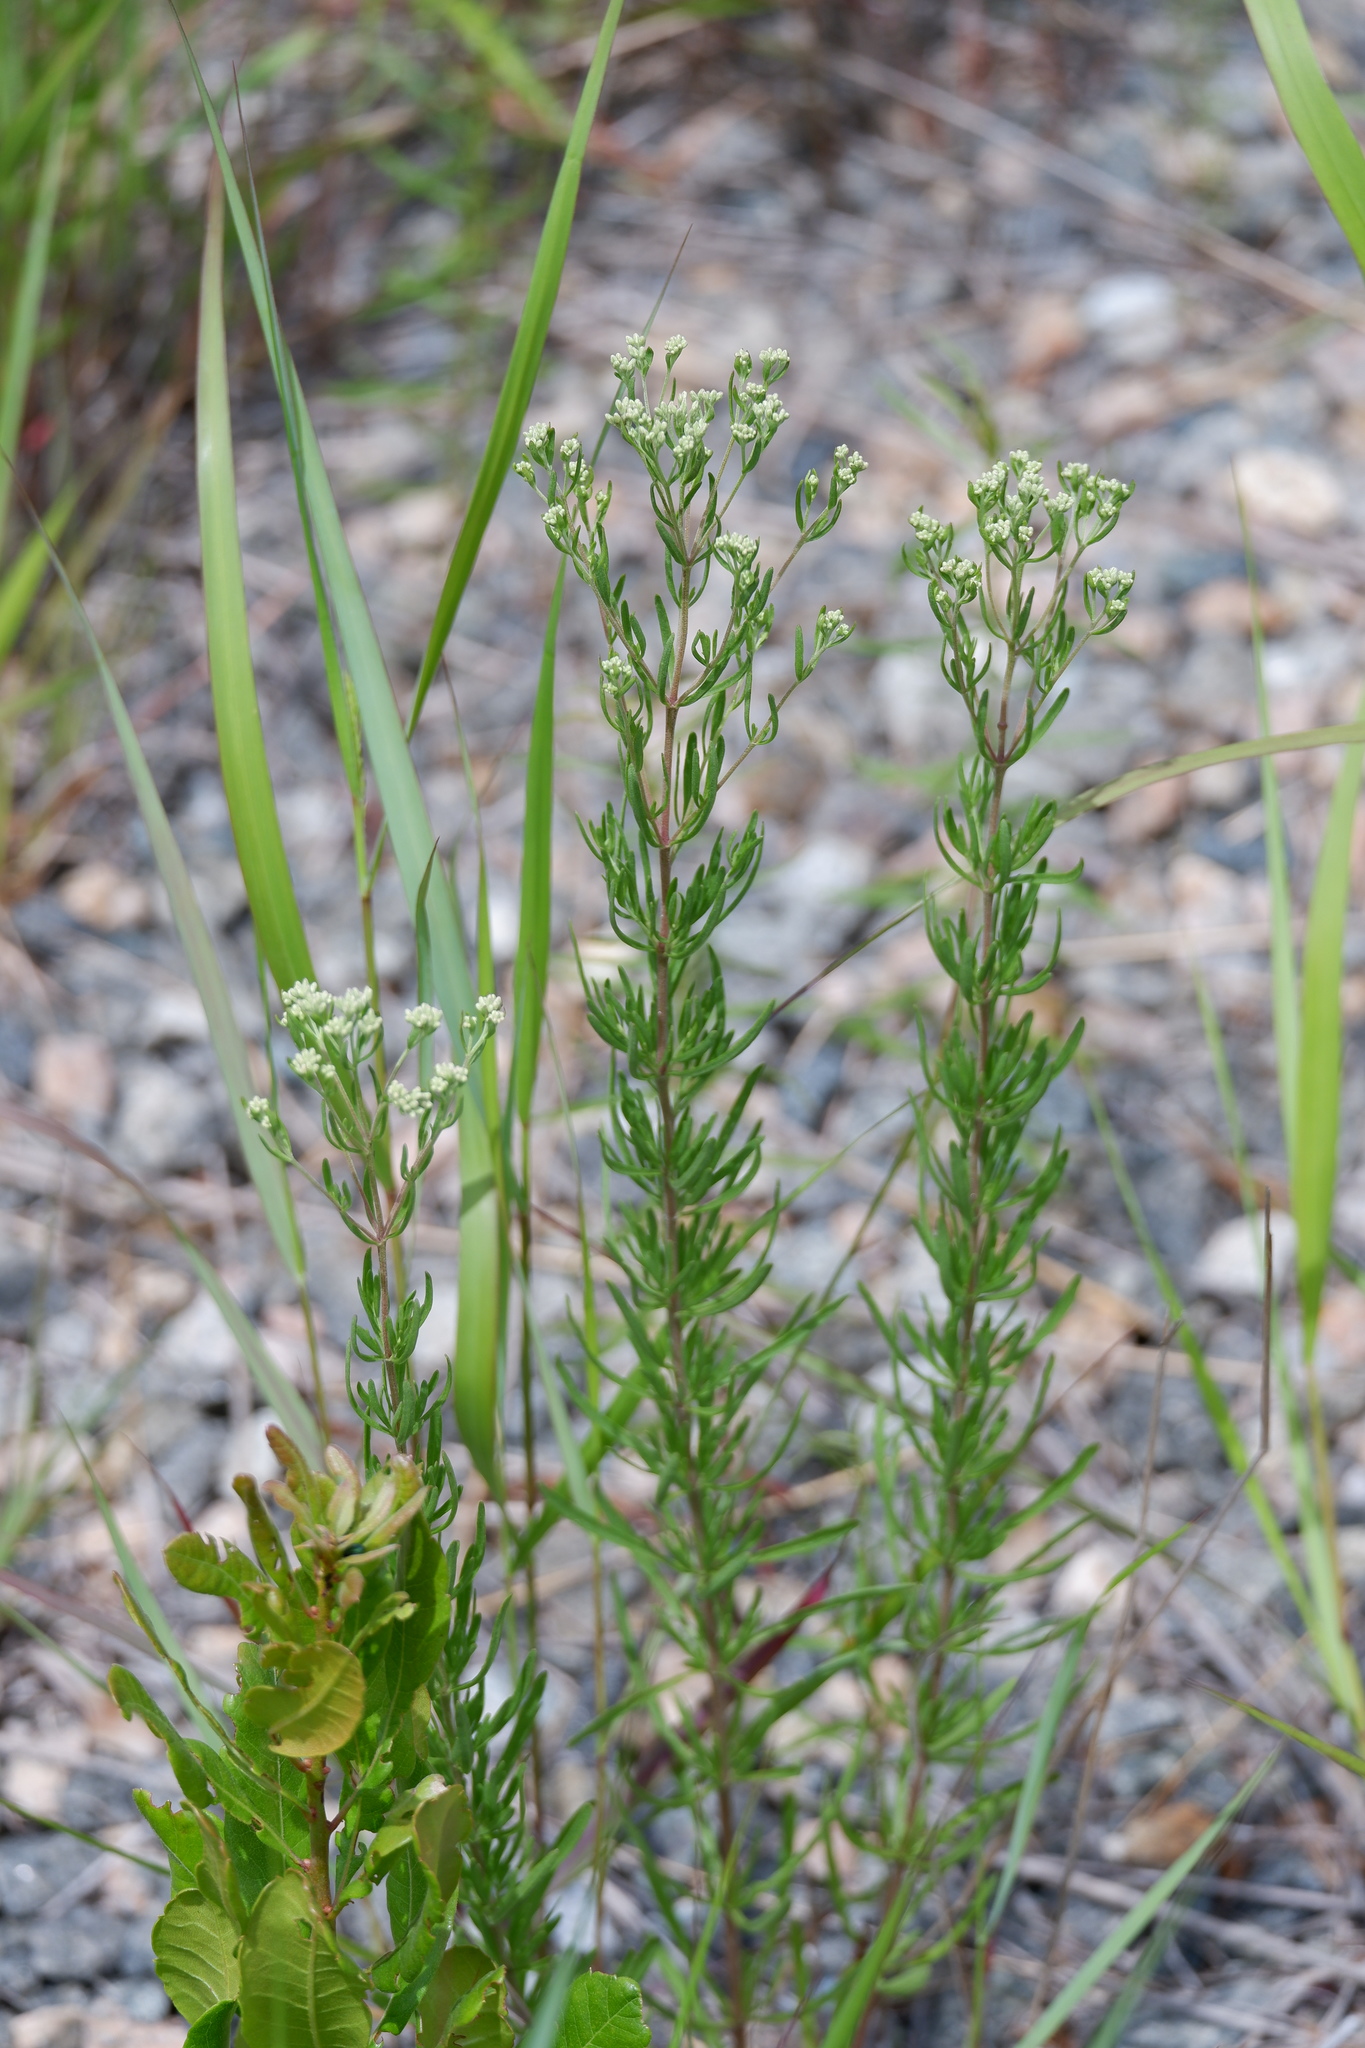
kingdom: Plantae
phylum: Tracheophyta
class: Magnoliopsida
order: Asterales
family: Asteraceae
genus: Eupatorium
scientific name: Eupatorium hyssopifolium
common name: Hyssop-leaf thoroughwort
